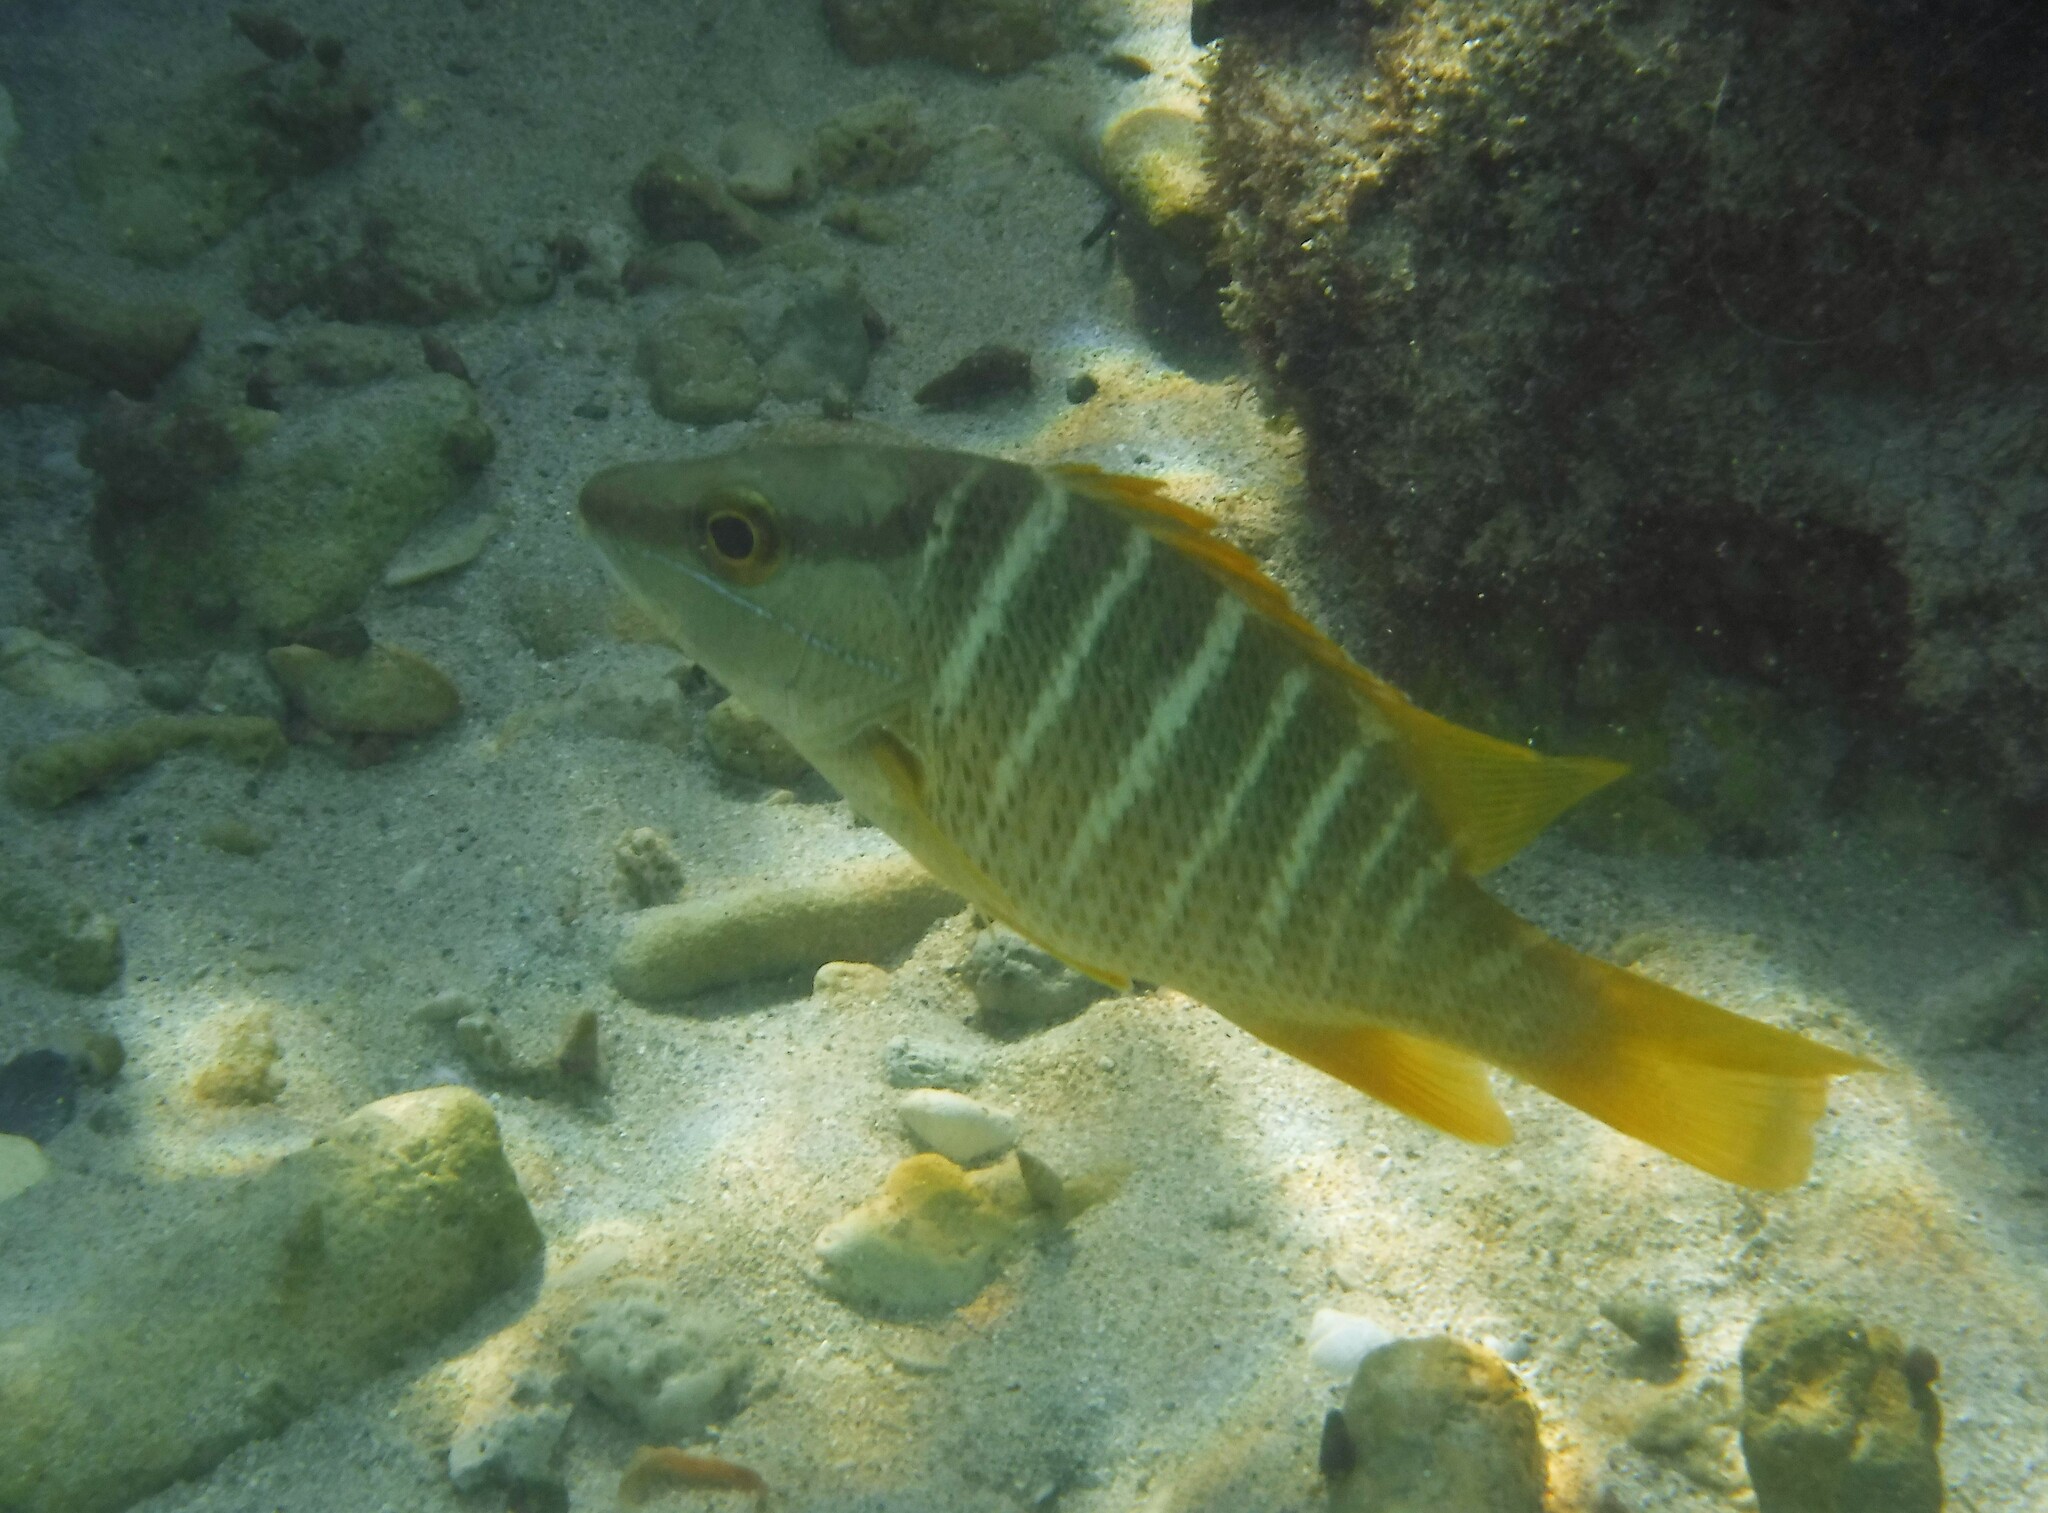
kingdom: Animalia
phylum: Chordata
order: Perciformes
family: Lutjanidae
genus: Lutjanus
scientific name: Lutjanus apodus
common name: Schoolmaster
